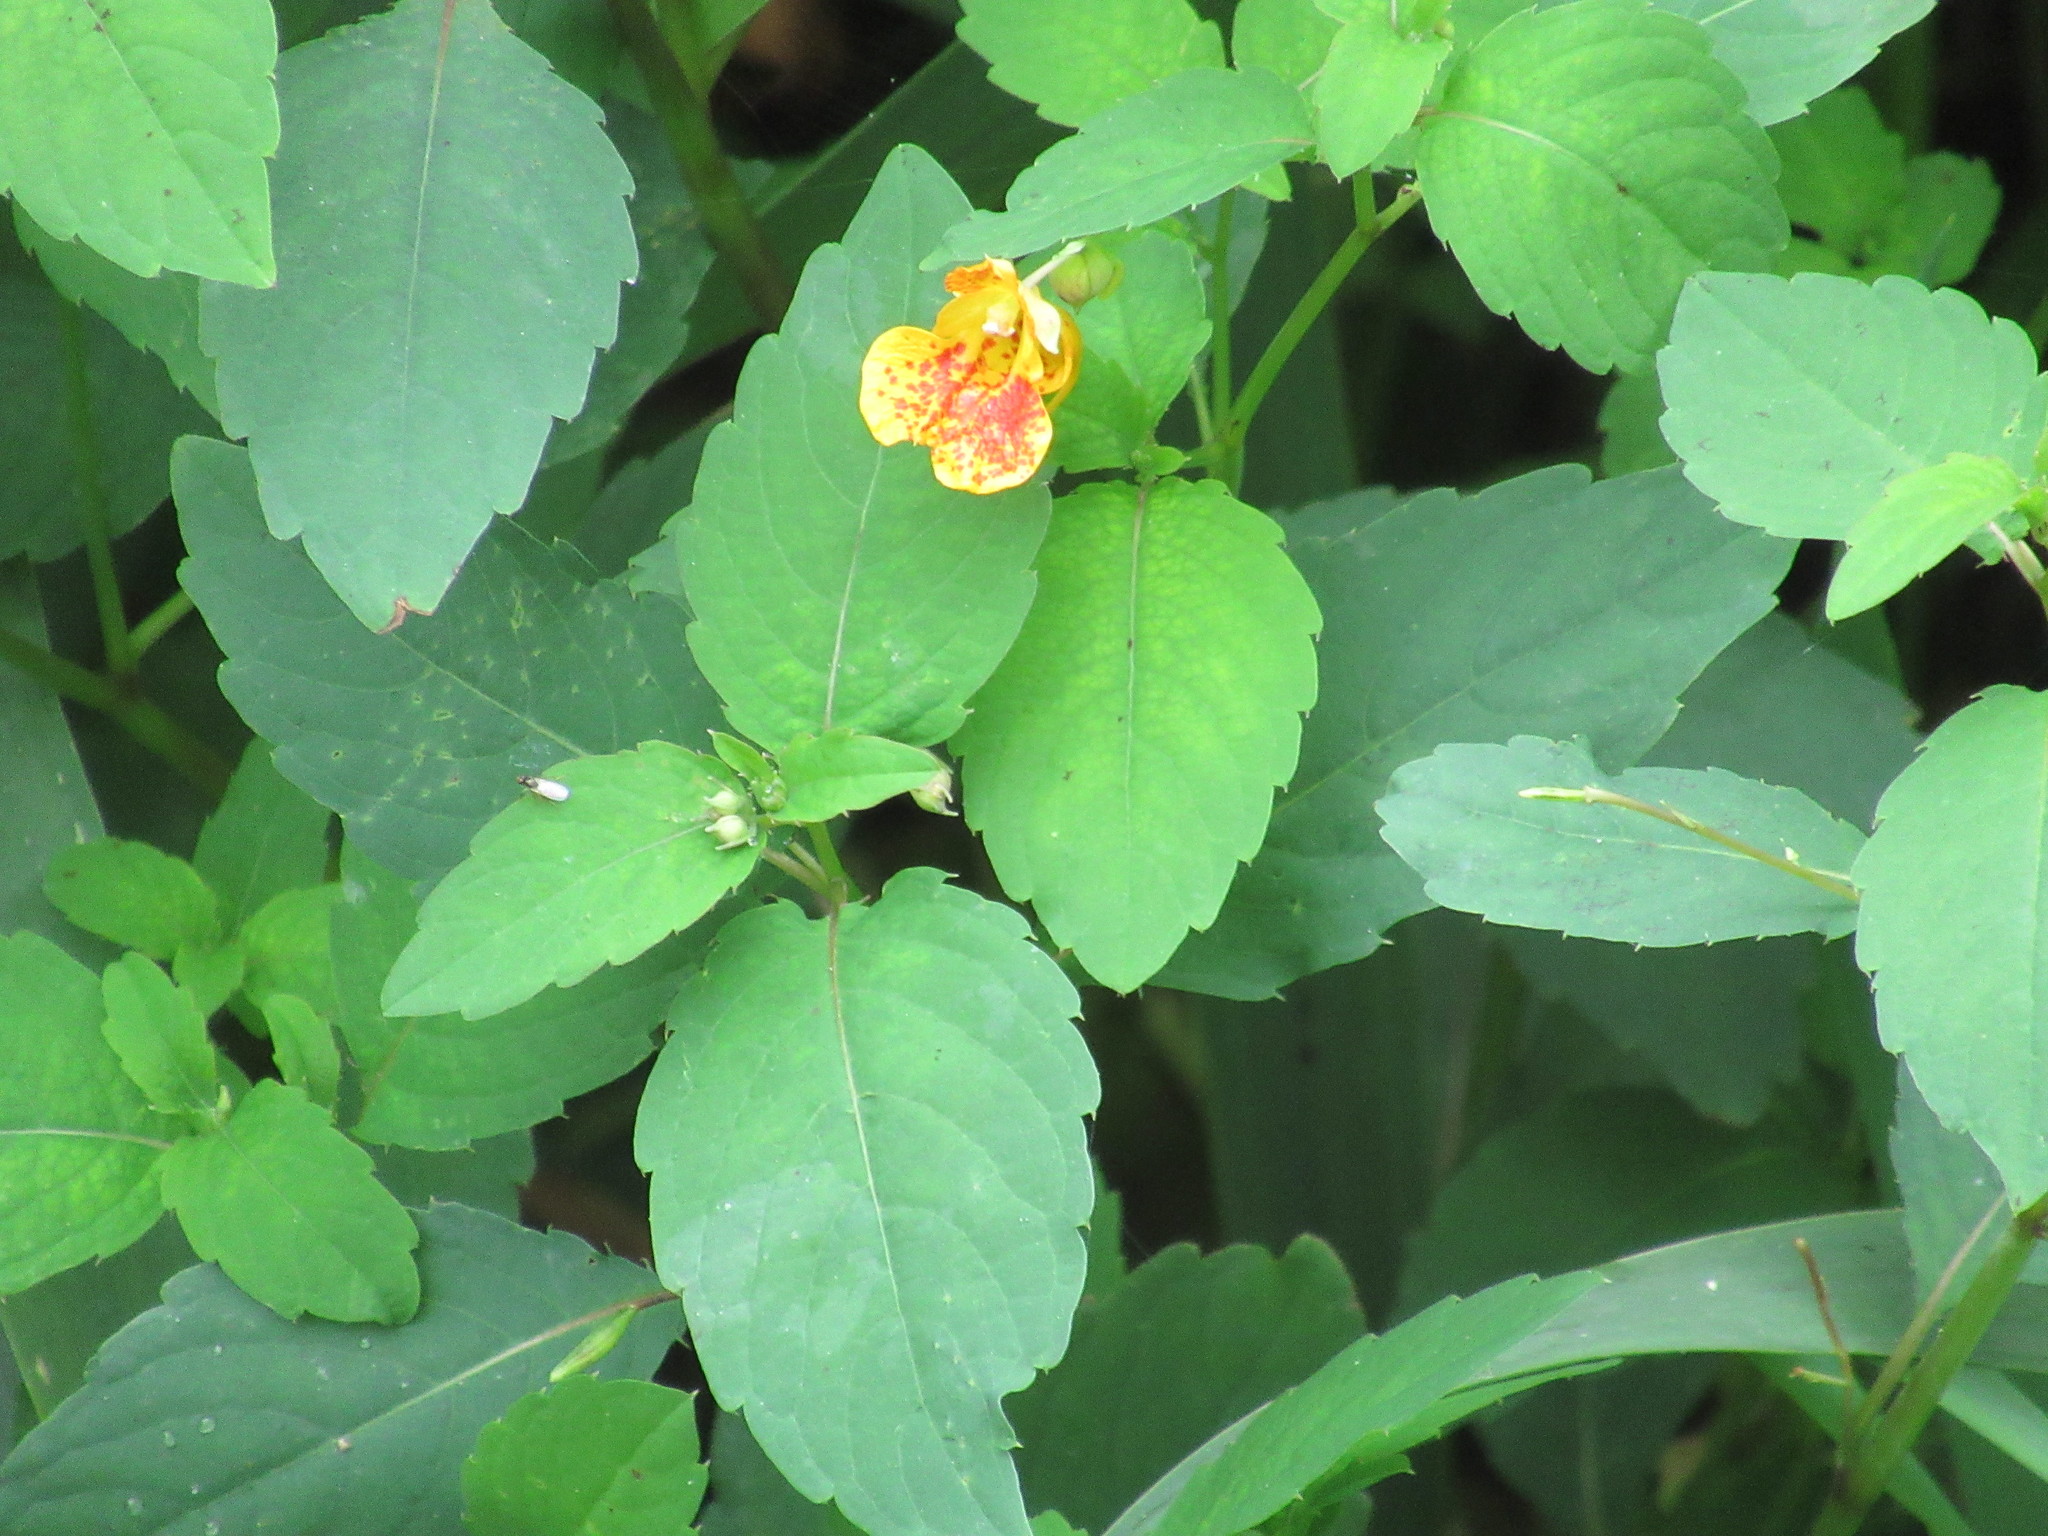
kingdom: Plantae
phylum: Tracheophyta
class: Magnoliopsida
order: Ericales
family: Balsaminaceae
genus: Impatiens
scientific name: Impatiens capensis
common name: Orange balsam
